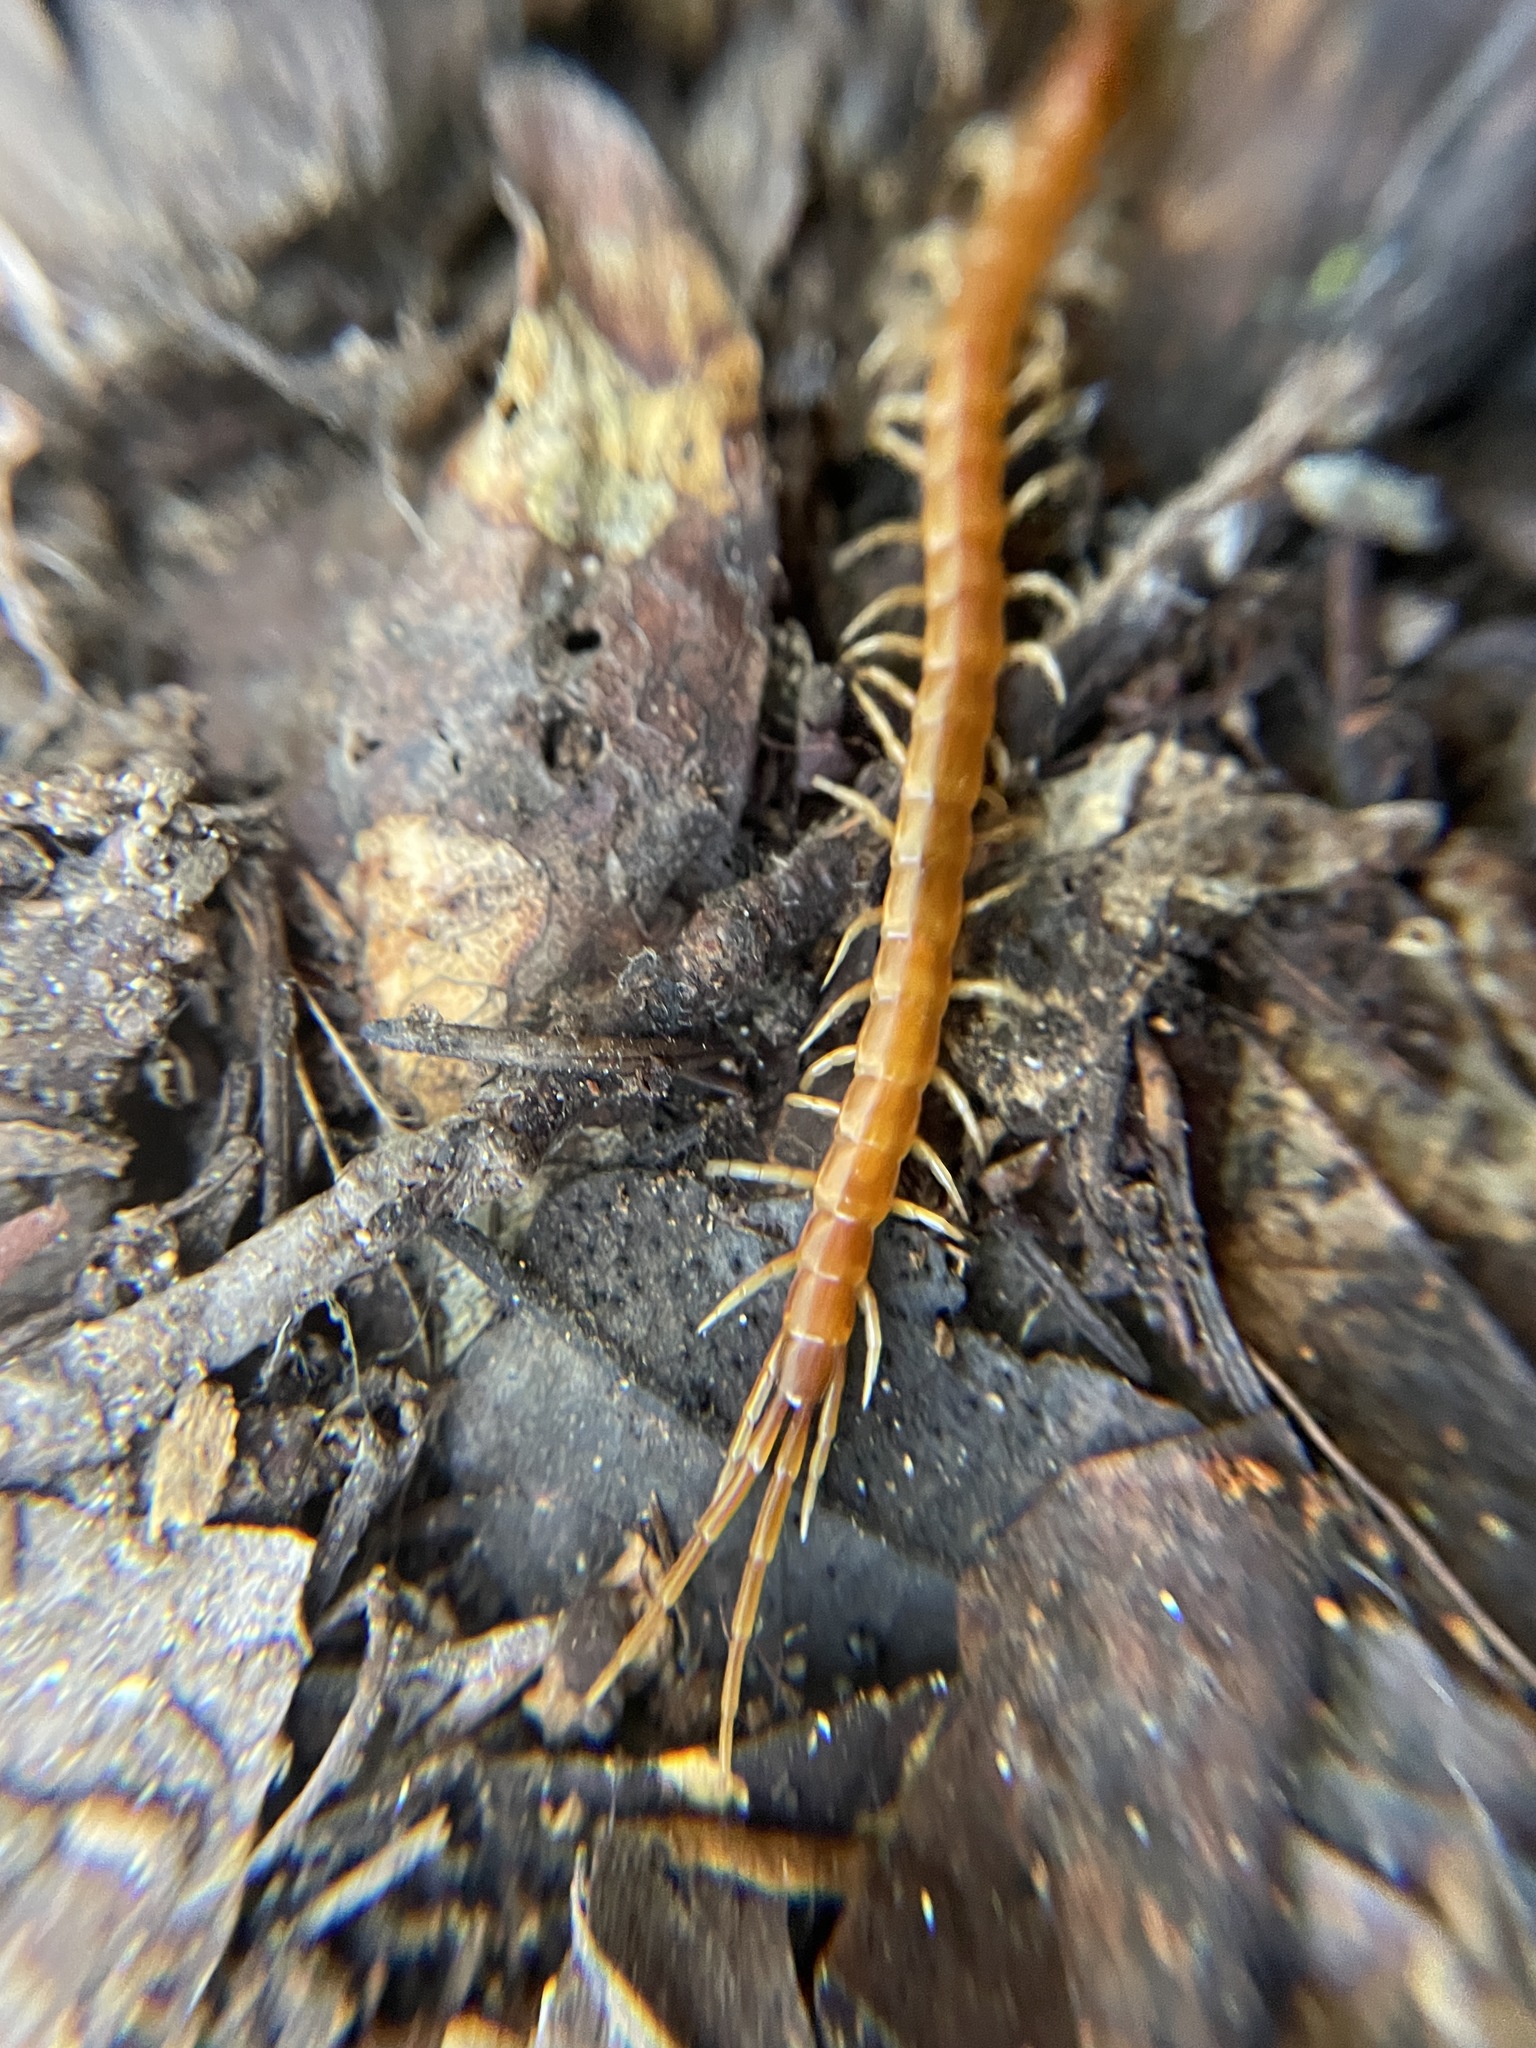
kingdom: Animalia
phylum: Arthropoda
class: Chilopoda
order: Scolopendromorpha
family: Scolopocryptopidae
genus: Scolopocryptops
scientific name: Scolopocryptops gracilis
